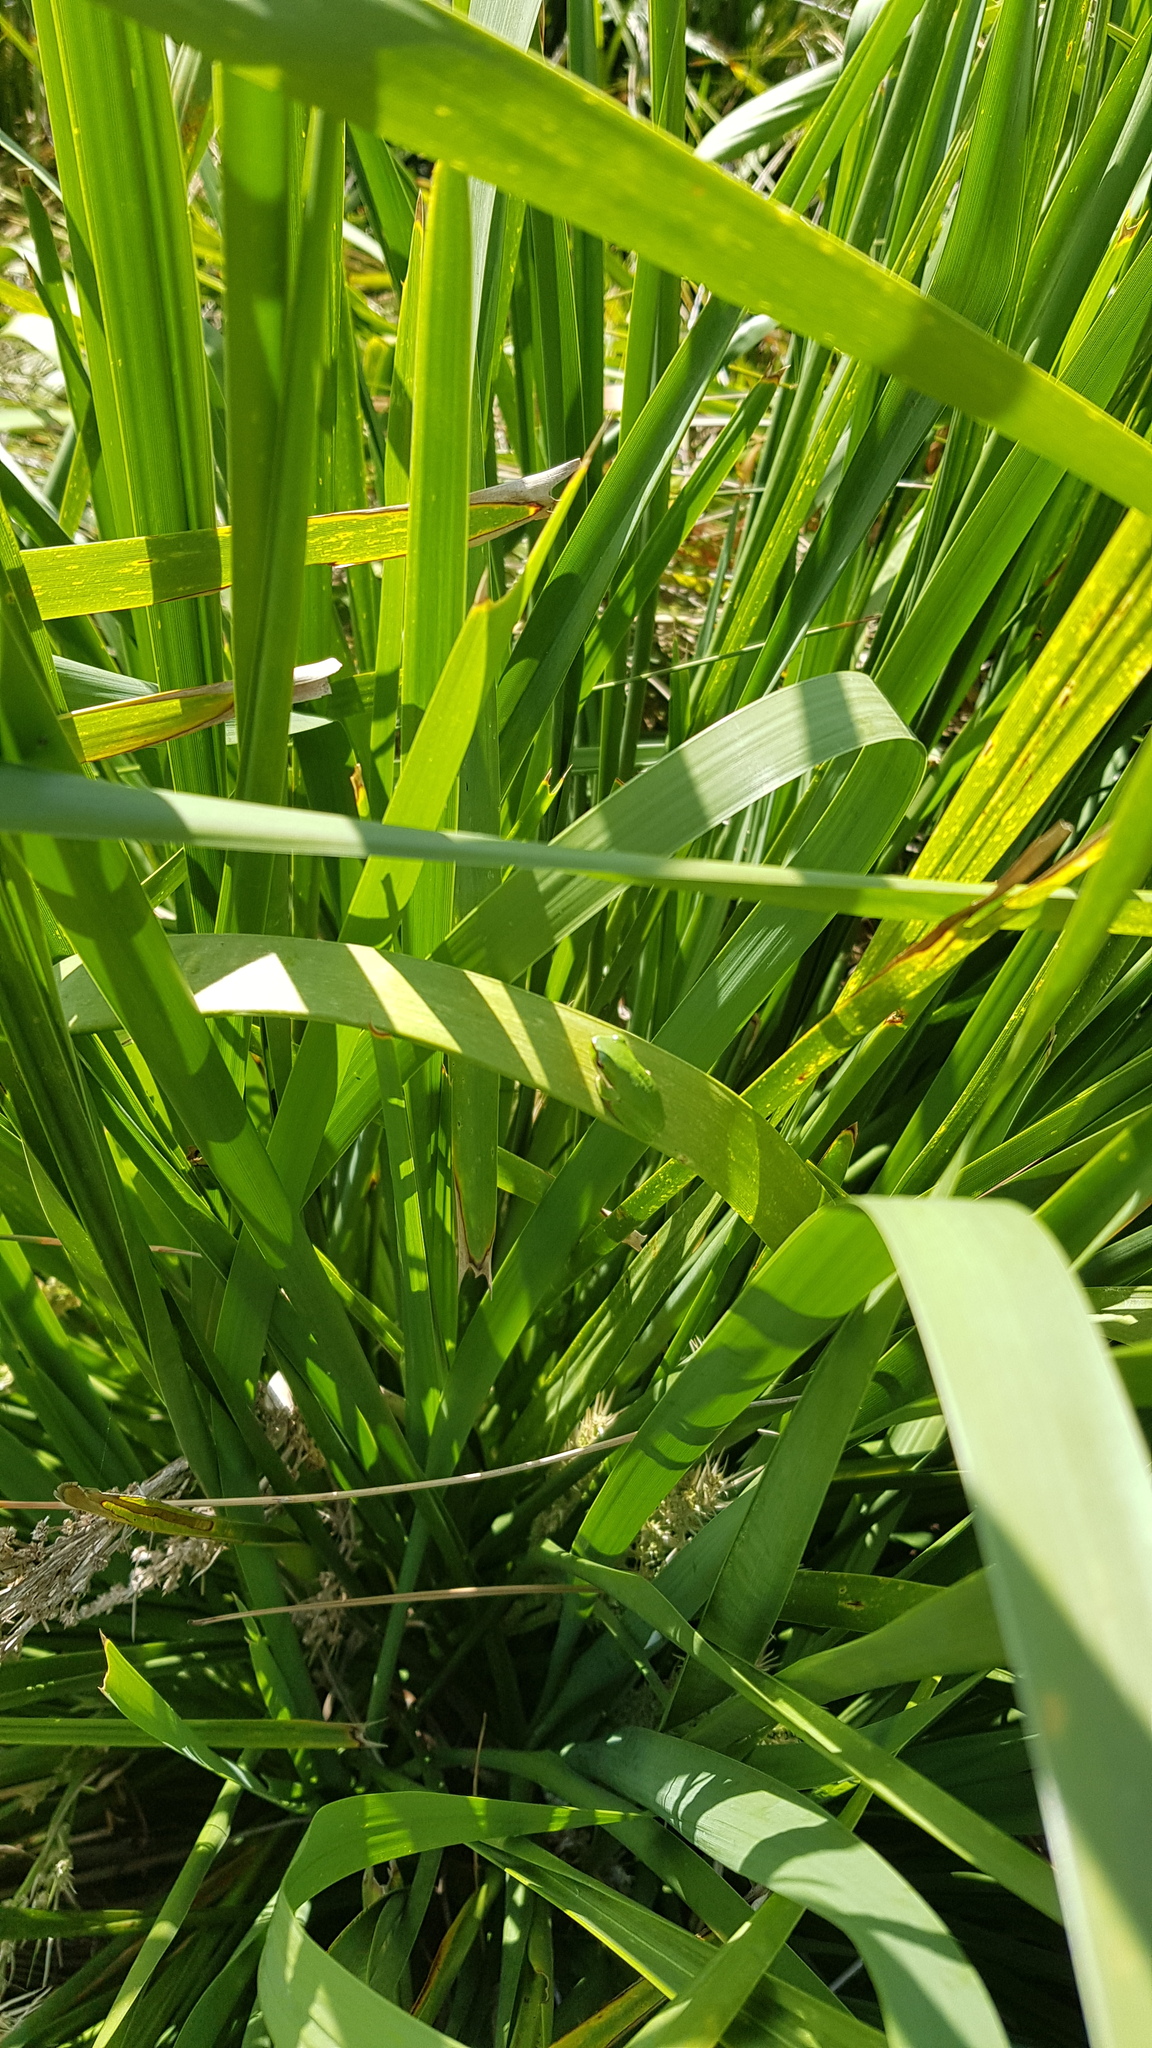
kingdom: Animalia
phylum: Chordata
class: Amphibia
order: Anura
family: Pelodryadidae
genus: Litoria
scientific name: Litoria fallax
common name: Eastern dwarf treefrog
